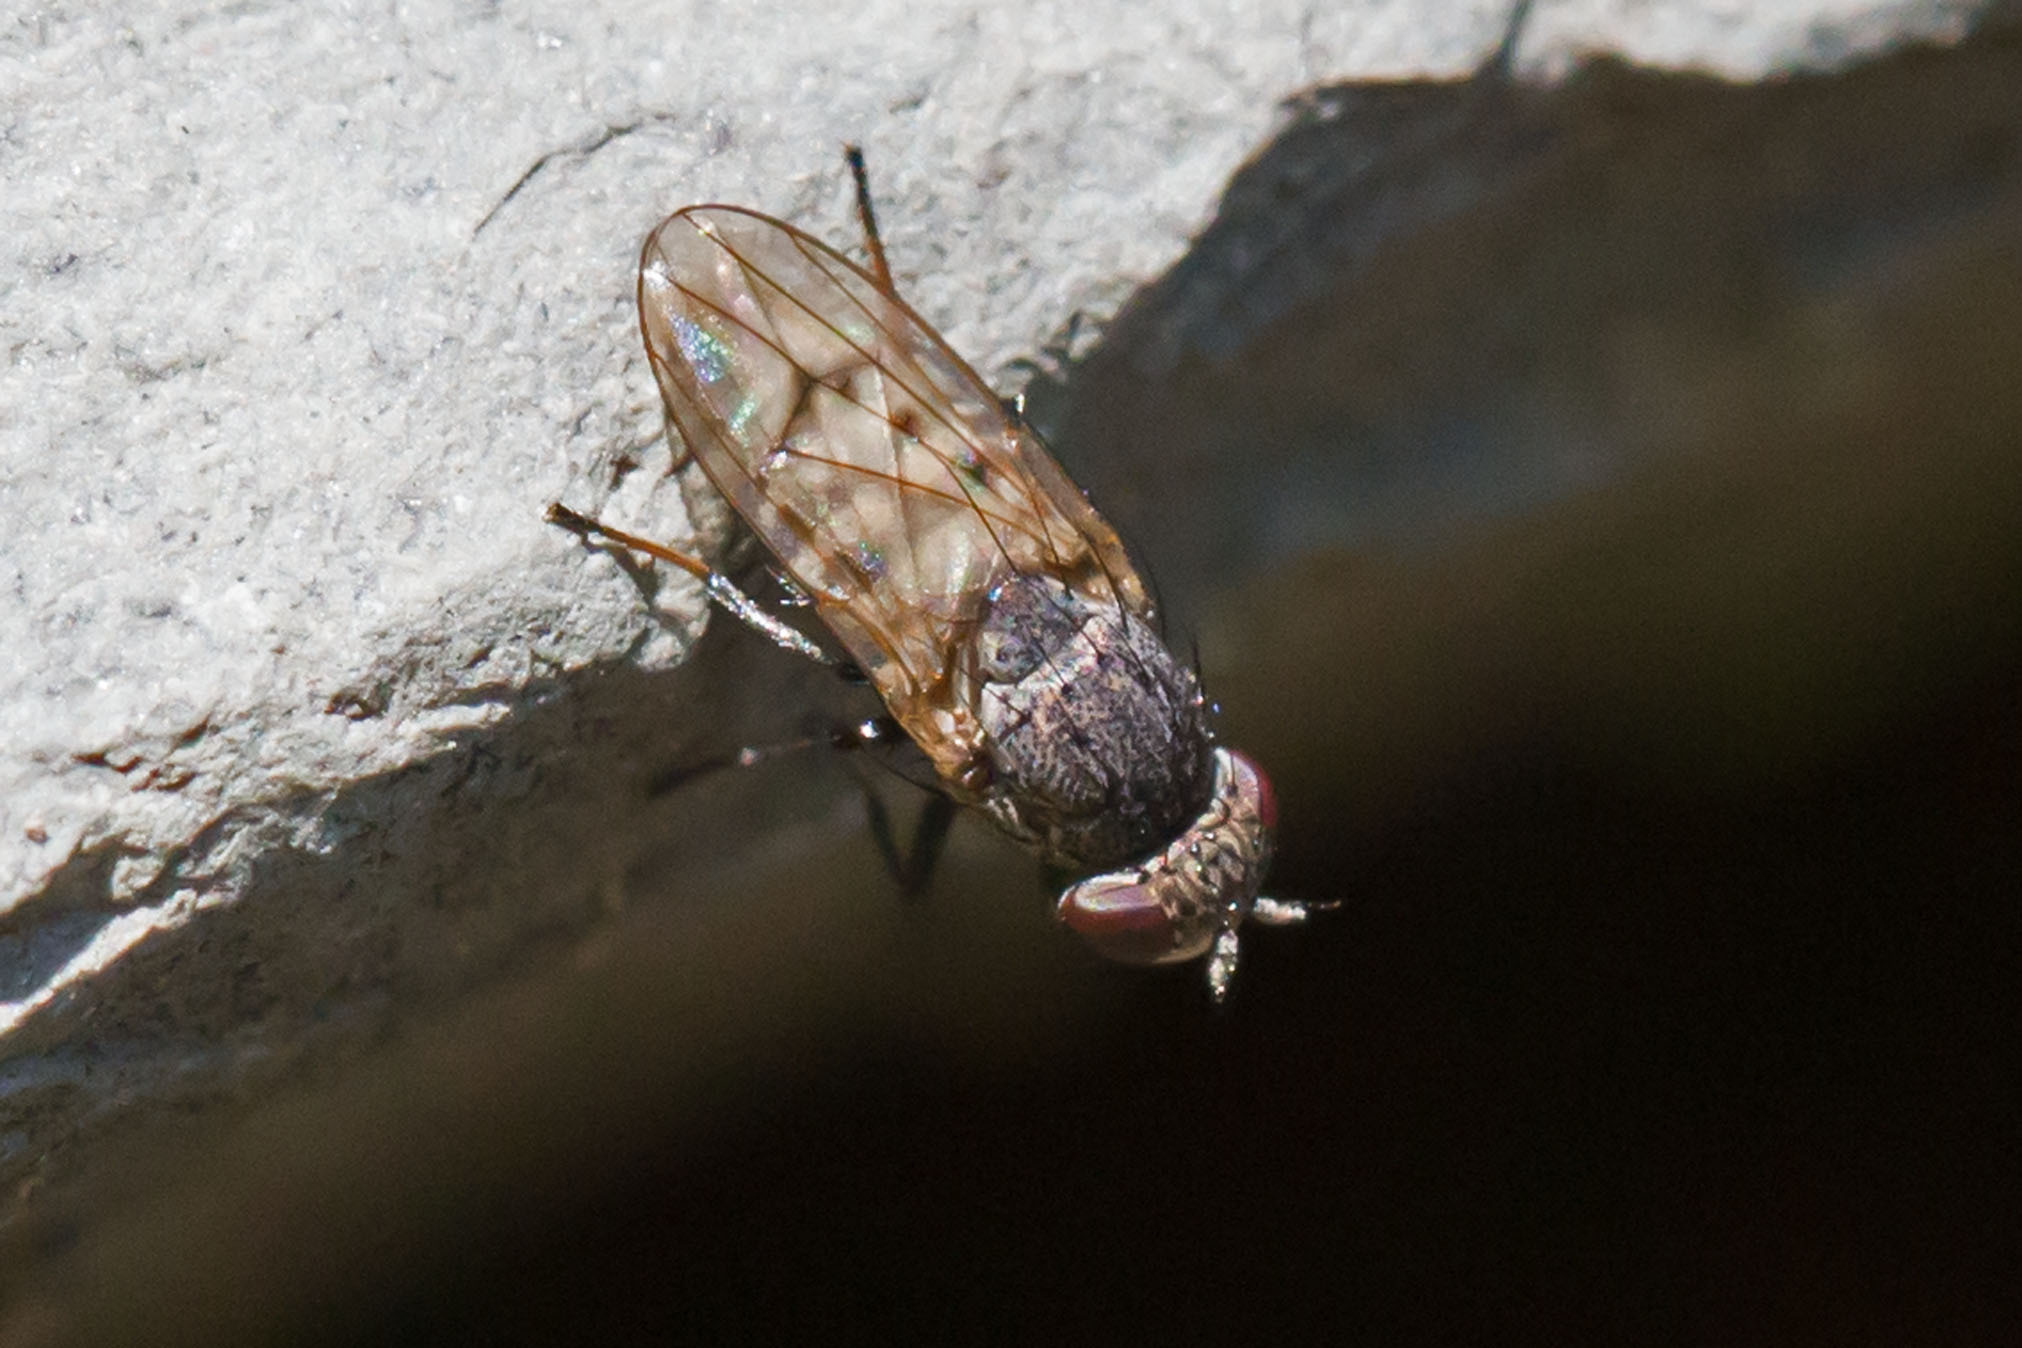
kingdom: Animalia
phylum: Arthropoda
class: Insecta
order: Diptera
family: Ephydridae
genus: Paralimna
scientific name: Paralimna punctipennis
